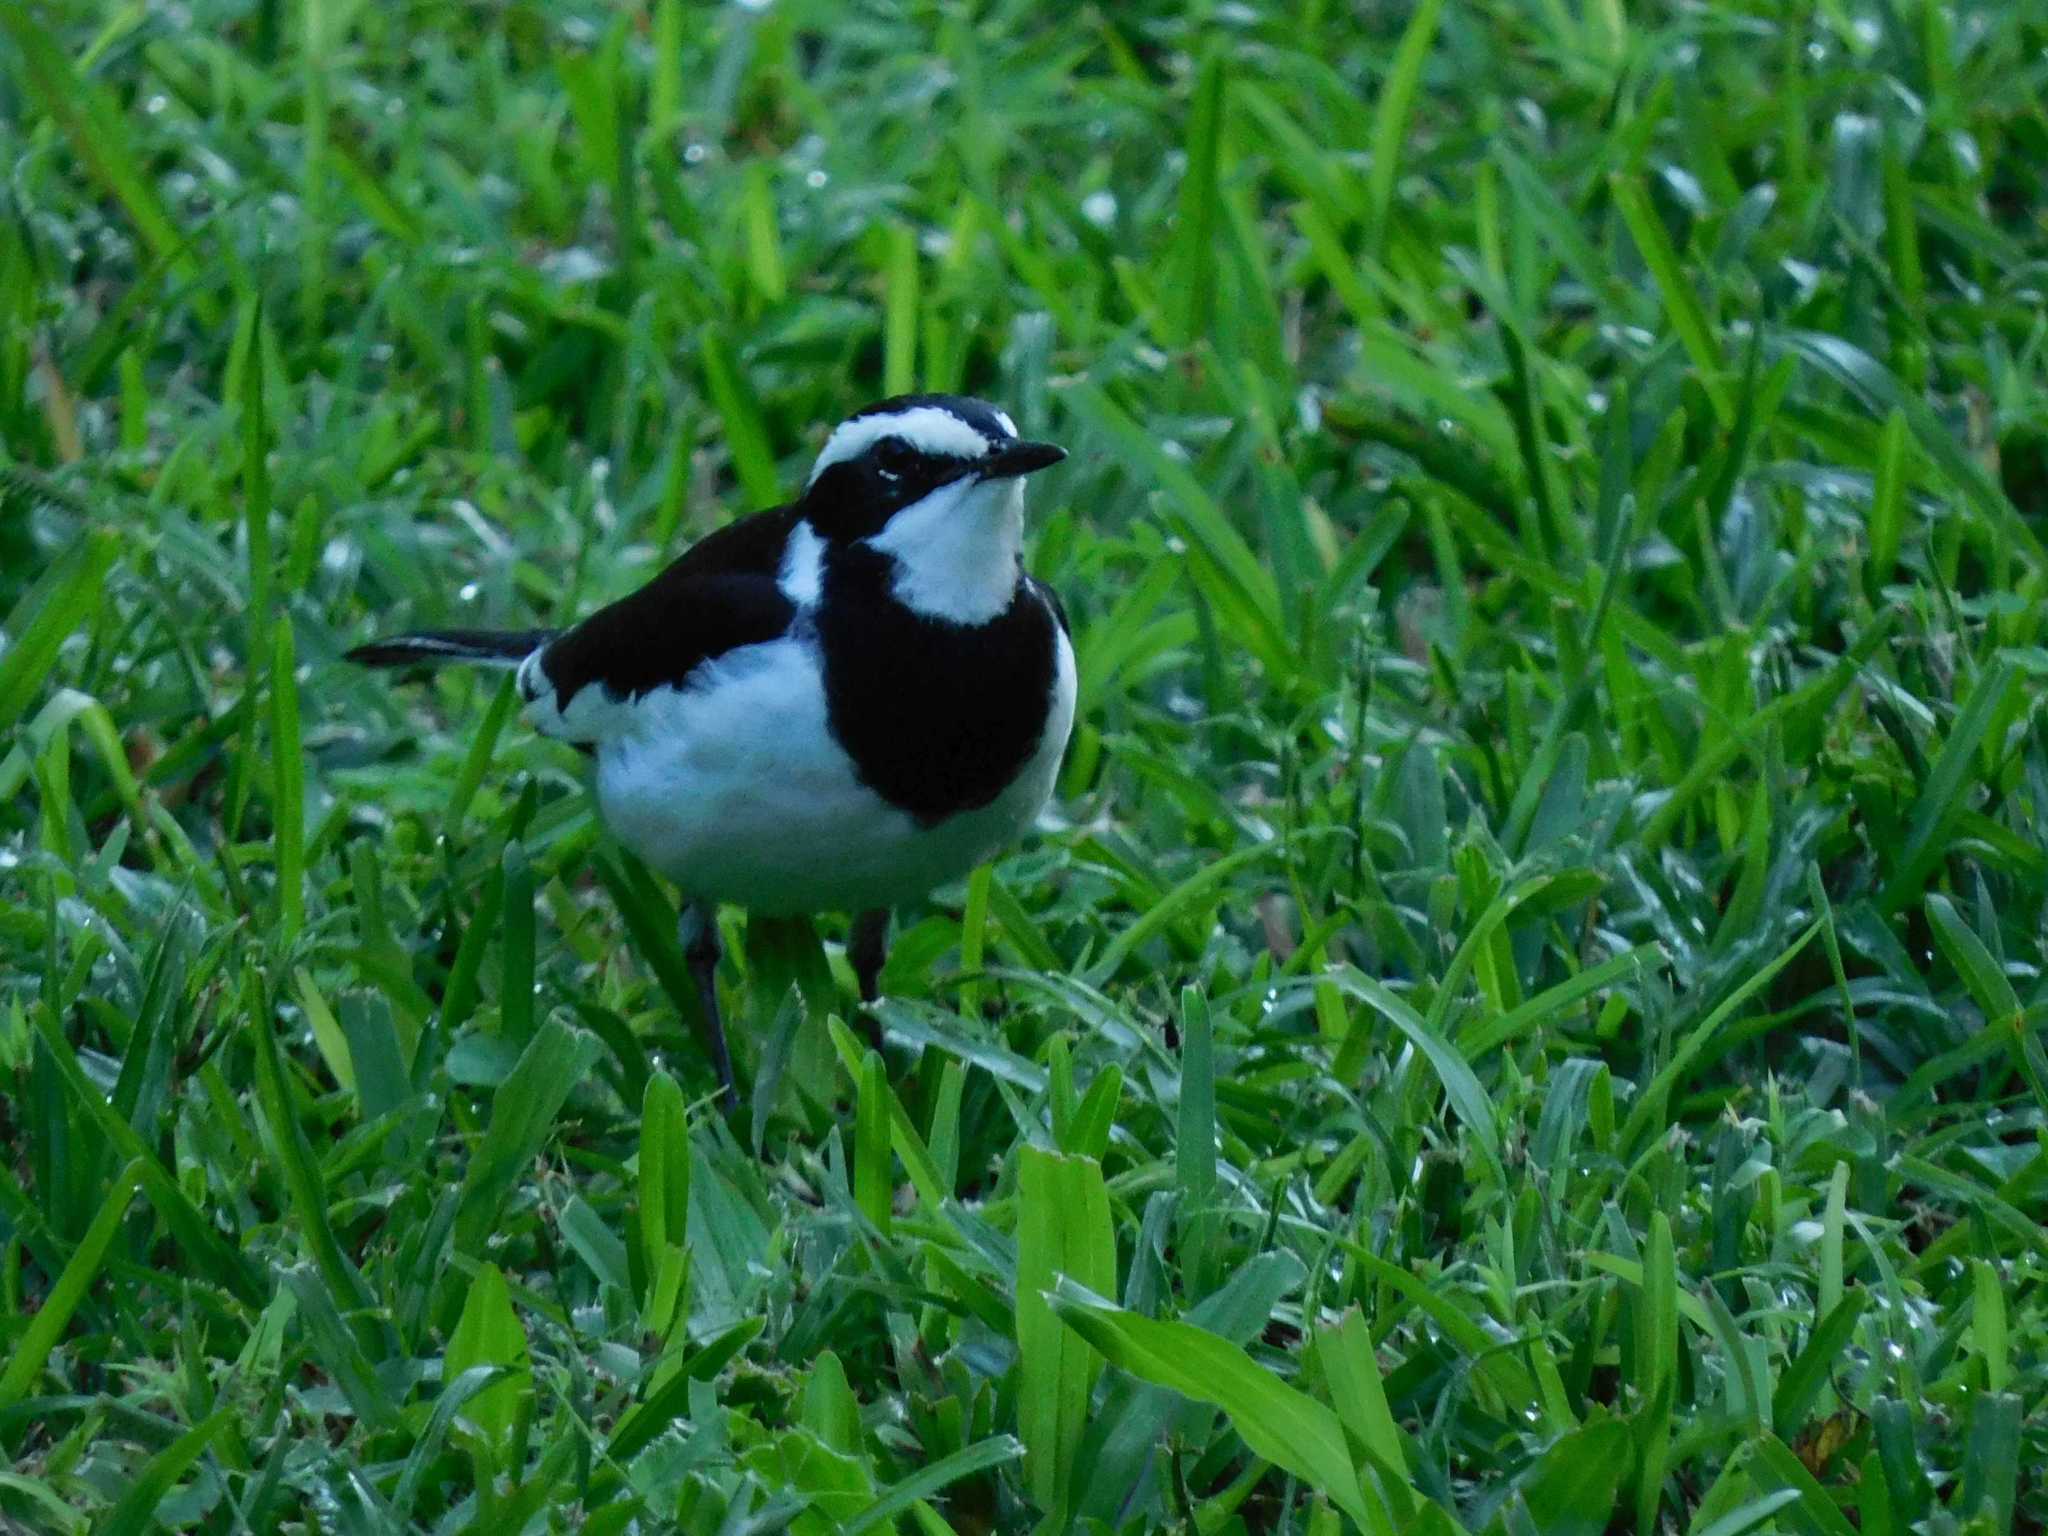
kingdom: Animalia
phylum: Chordata
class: Aves
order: Passeriformes
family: Motacillidae
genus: Motacilla
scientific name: Motacilla aguimp
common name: African pied wagtail
